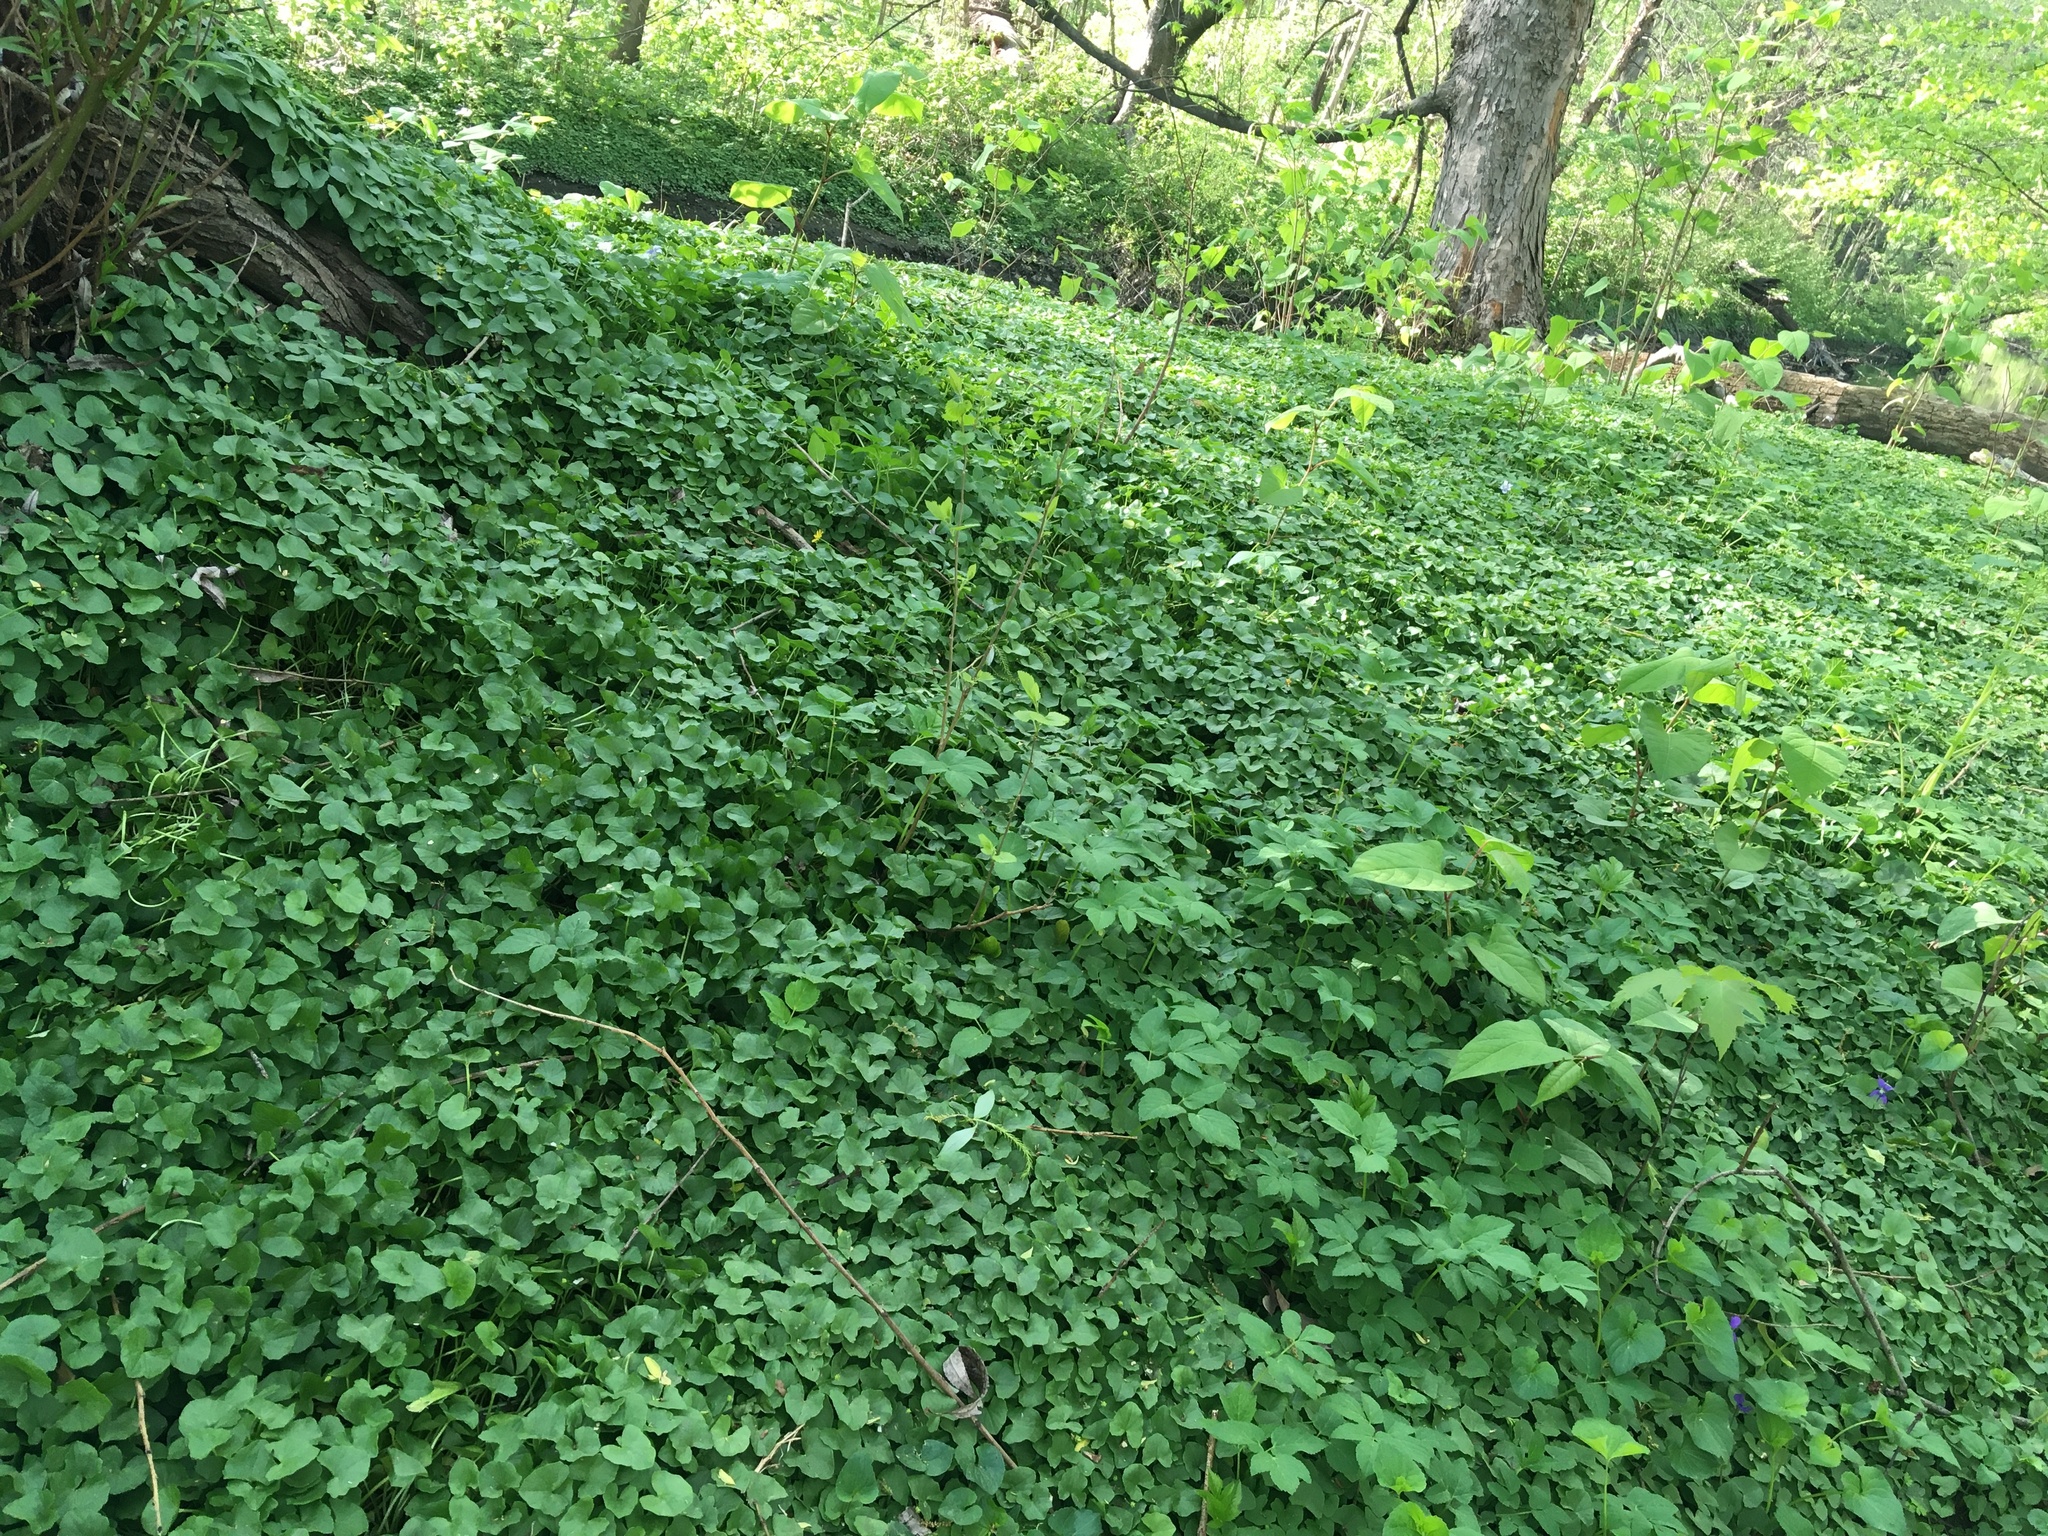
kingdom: Plantae
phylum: Tracheophyta
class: Magnoliopsida
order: Ranunculales
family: Ranunculaceae
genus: Ficaria
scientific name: Ficaria verna
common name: Lesser celandine
